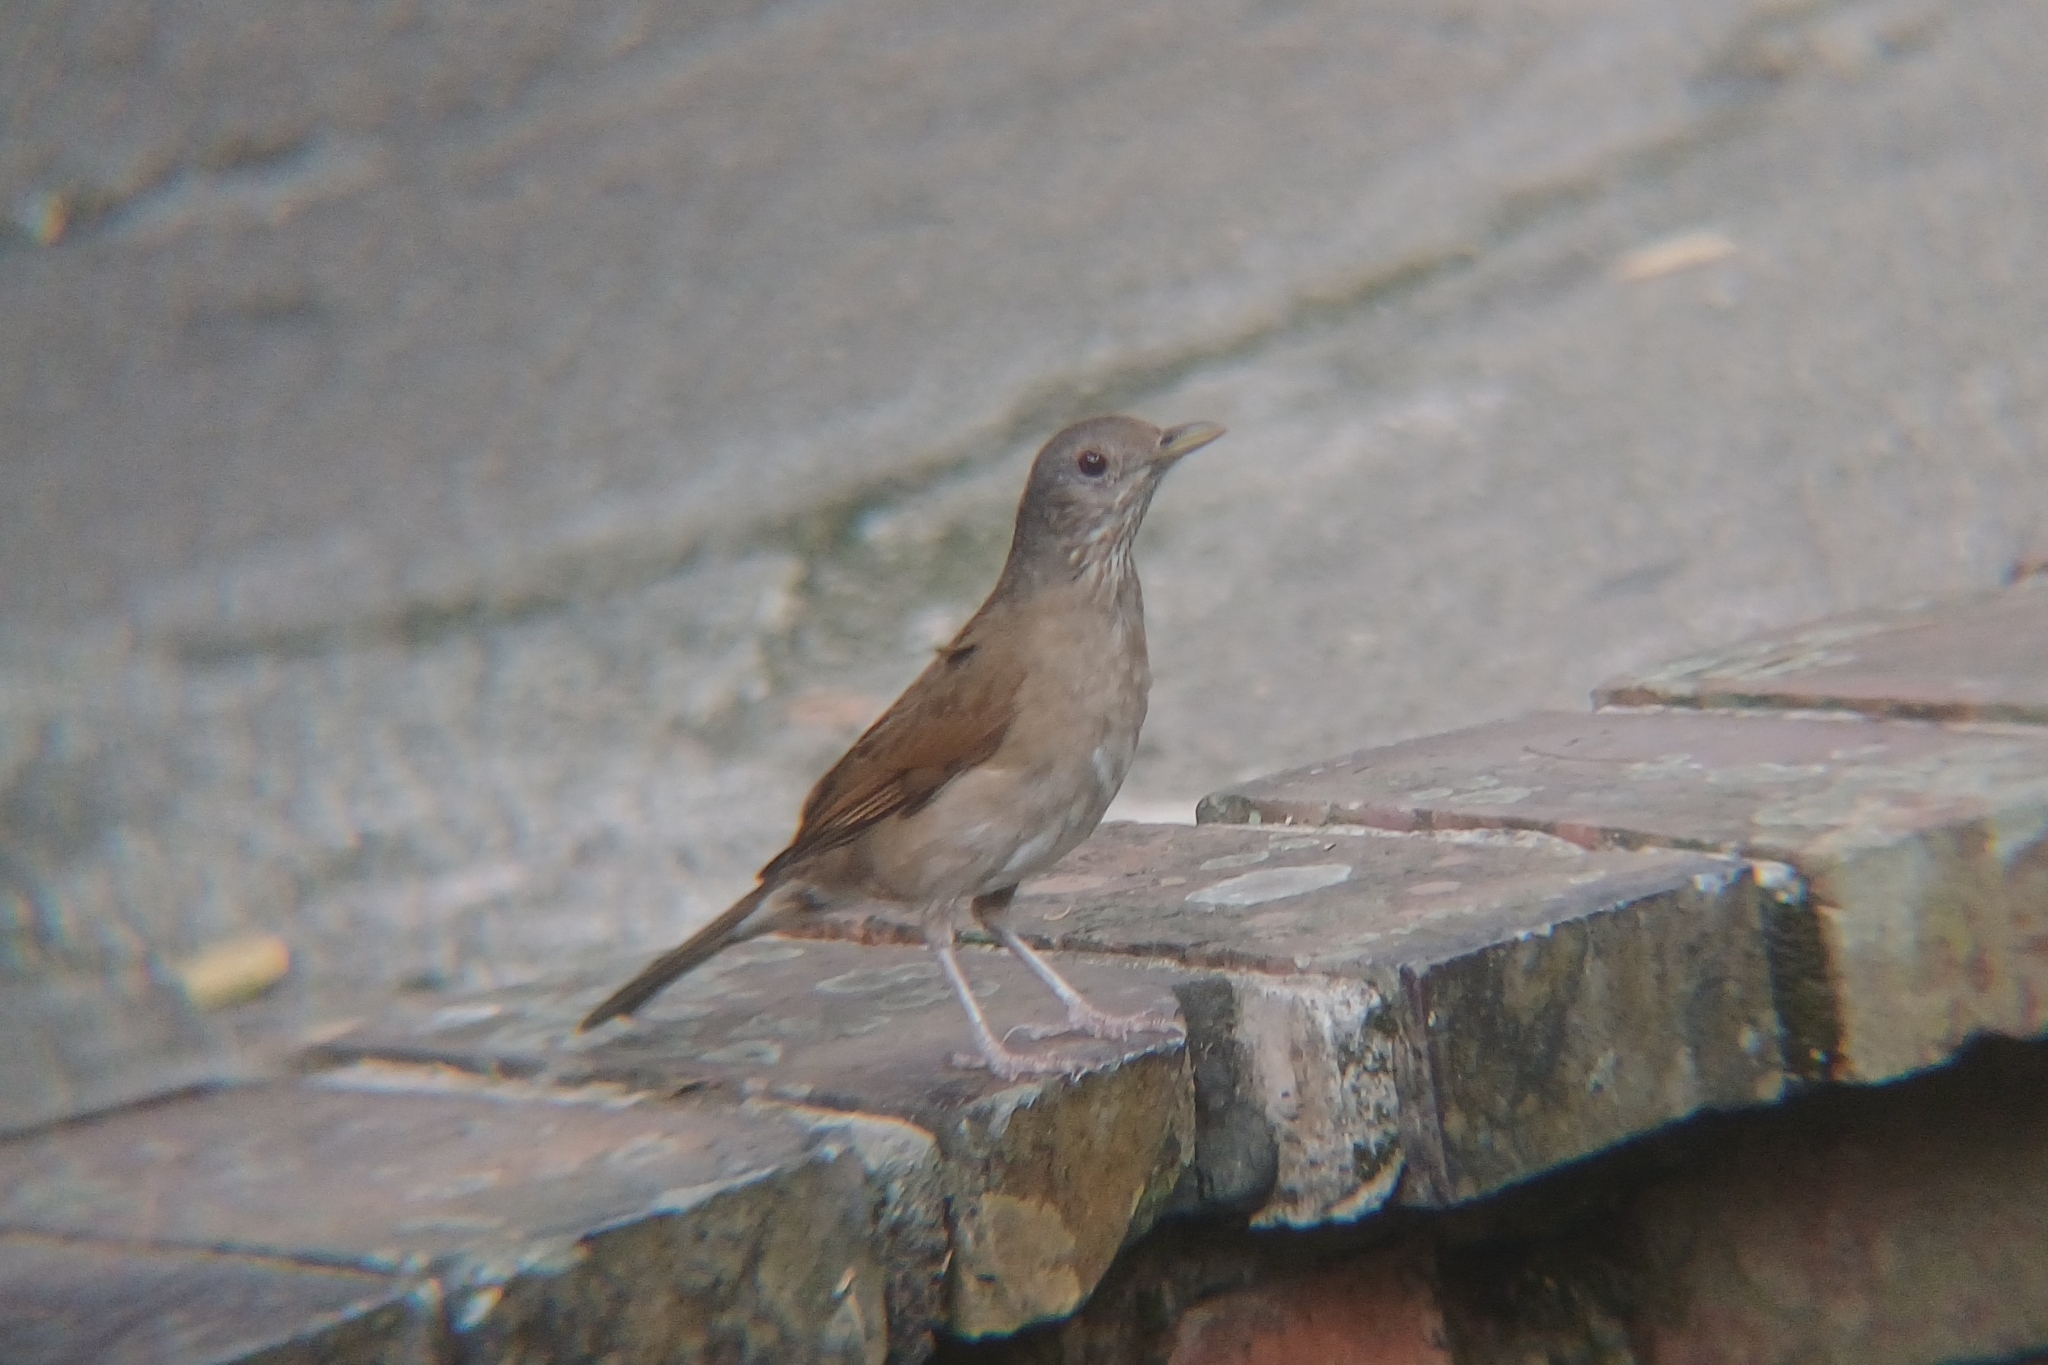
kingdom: Animalia
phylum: Chordata
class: Aves
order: Passeriformes
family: Turdidae
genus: Turdus
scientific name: Turdus leucomelas
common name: Pale-breasted thrush
